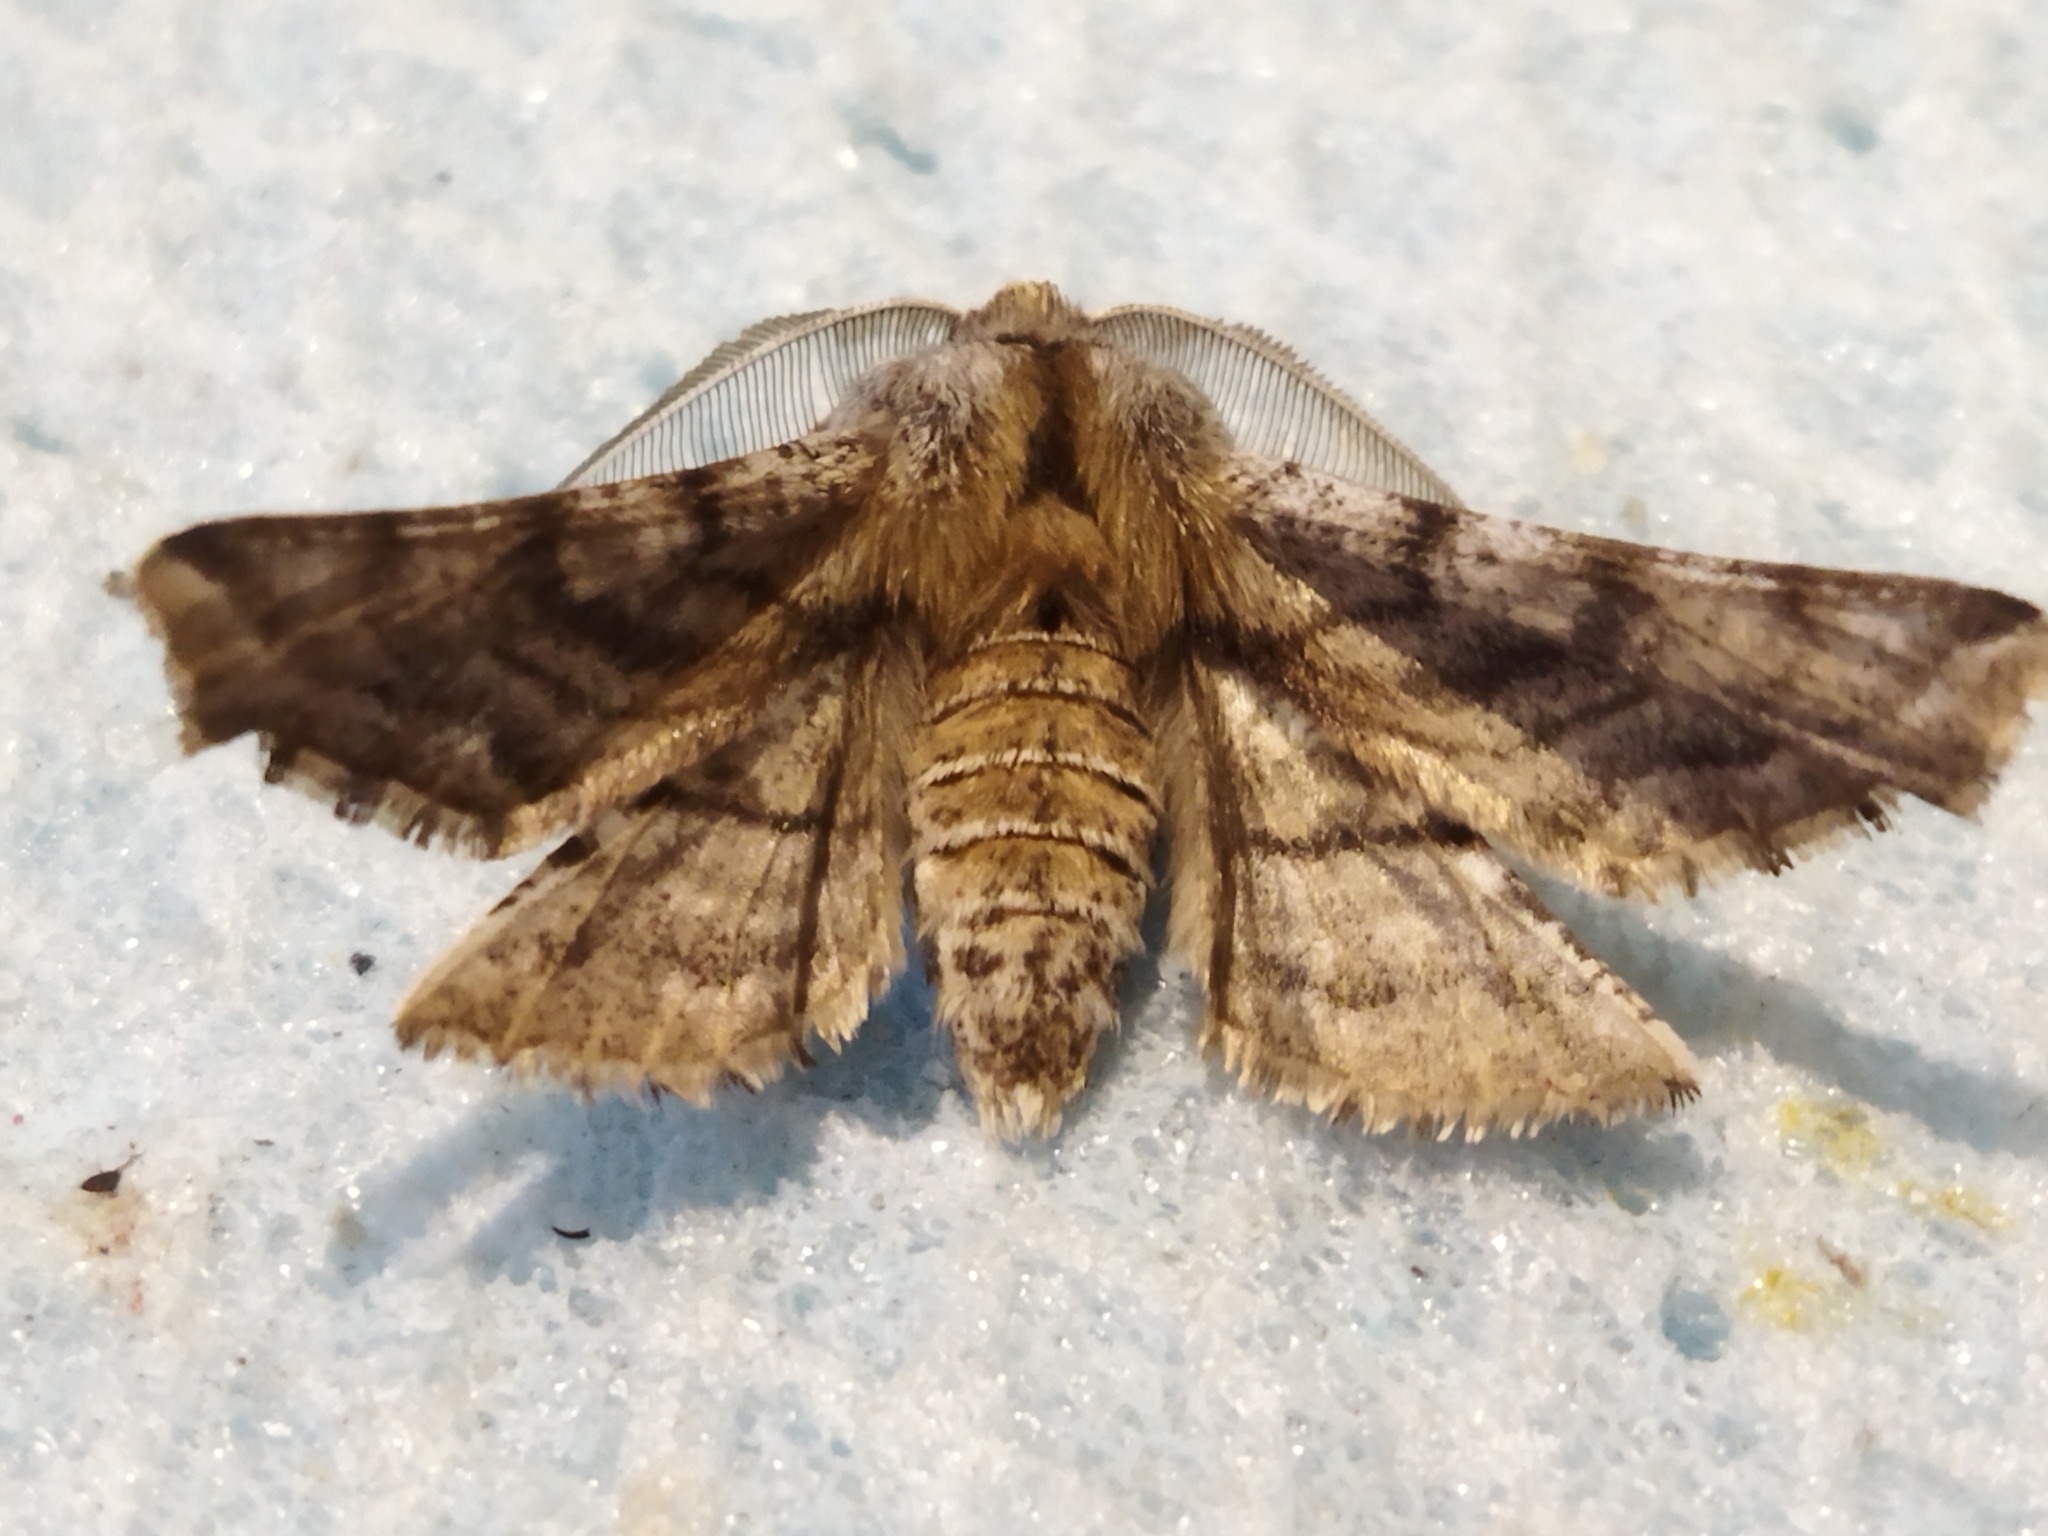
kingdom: Animalia
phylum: Arthropoda
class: Insecta
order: Lepidoptera
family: Geometridae
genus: Apochima
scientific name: Apochima flabellaria
